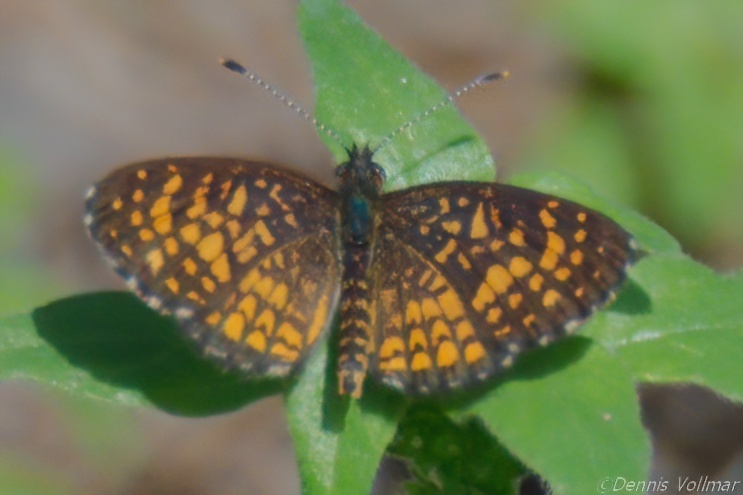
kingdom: Animalia
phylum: Arthropoda
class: Insecta
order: Lepidoptera
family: Nymphalidae
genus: Texola
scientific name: Texola elada
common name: Elada checkerspot
